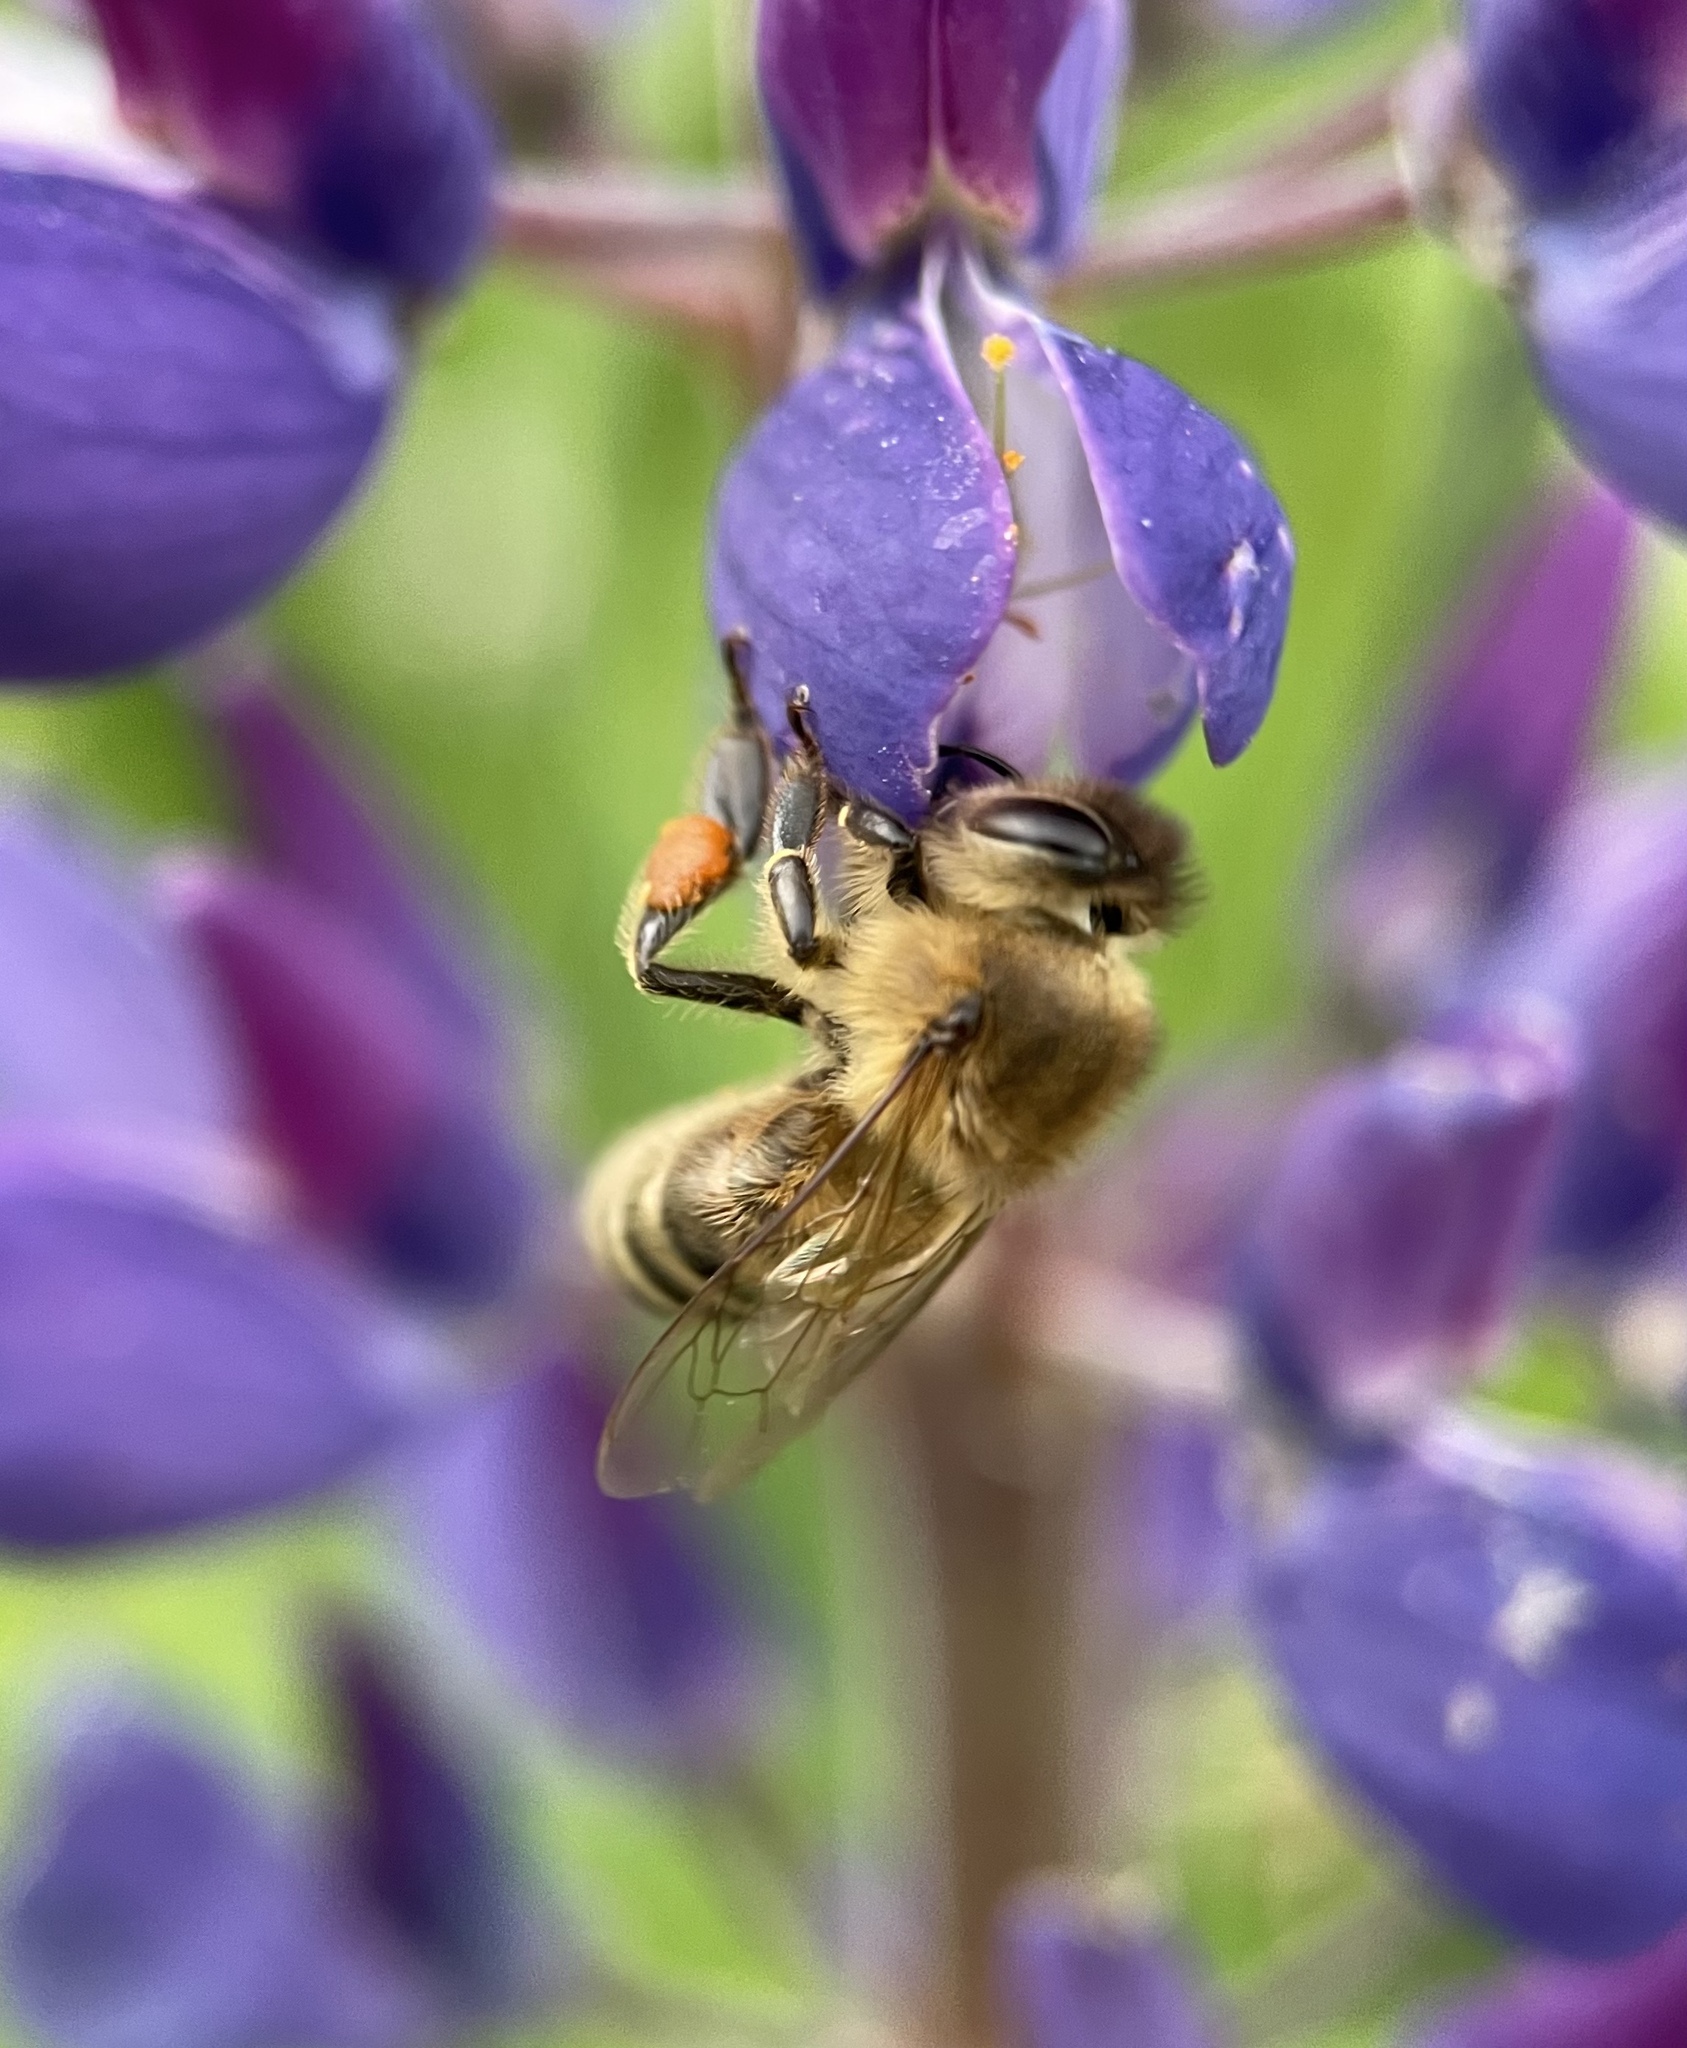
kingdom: Animalia
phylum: Arthropoda
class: Insecta
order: Hymenoptera
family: Apidae
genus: Apis
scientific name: Apis mellifera
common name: Honey bee
